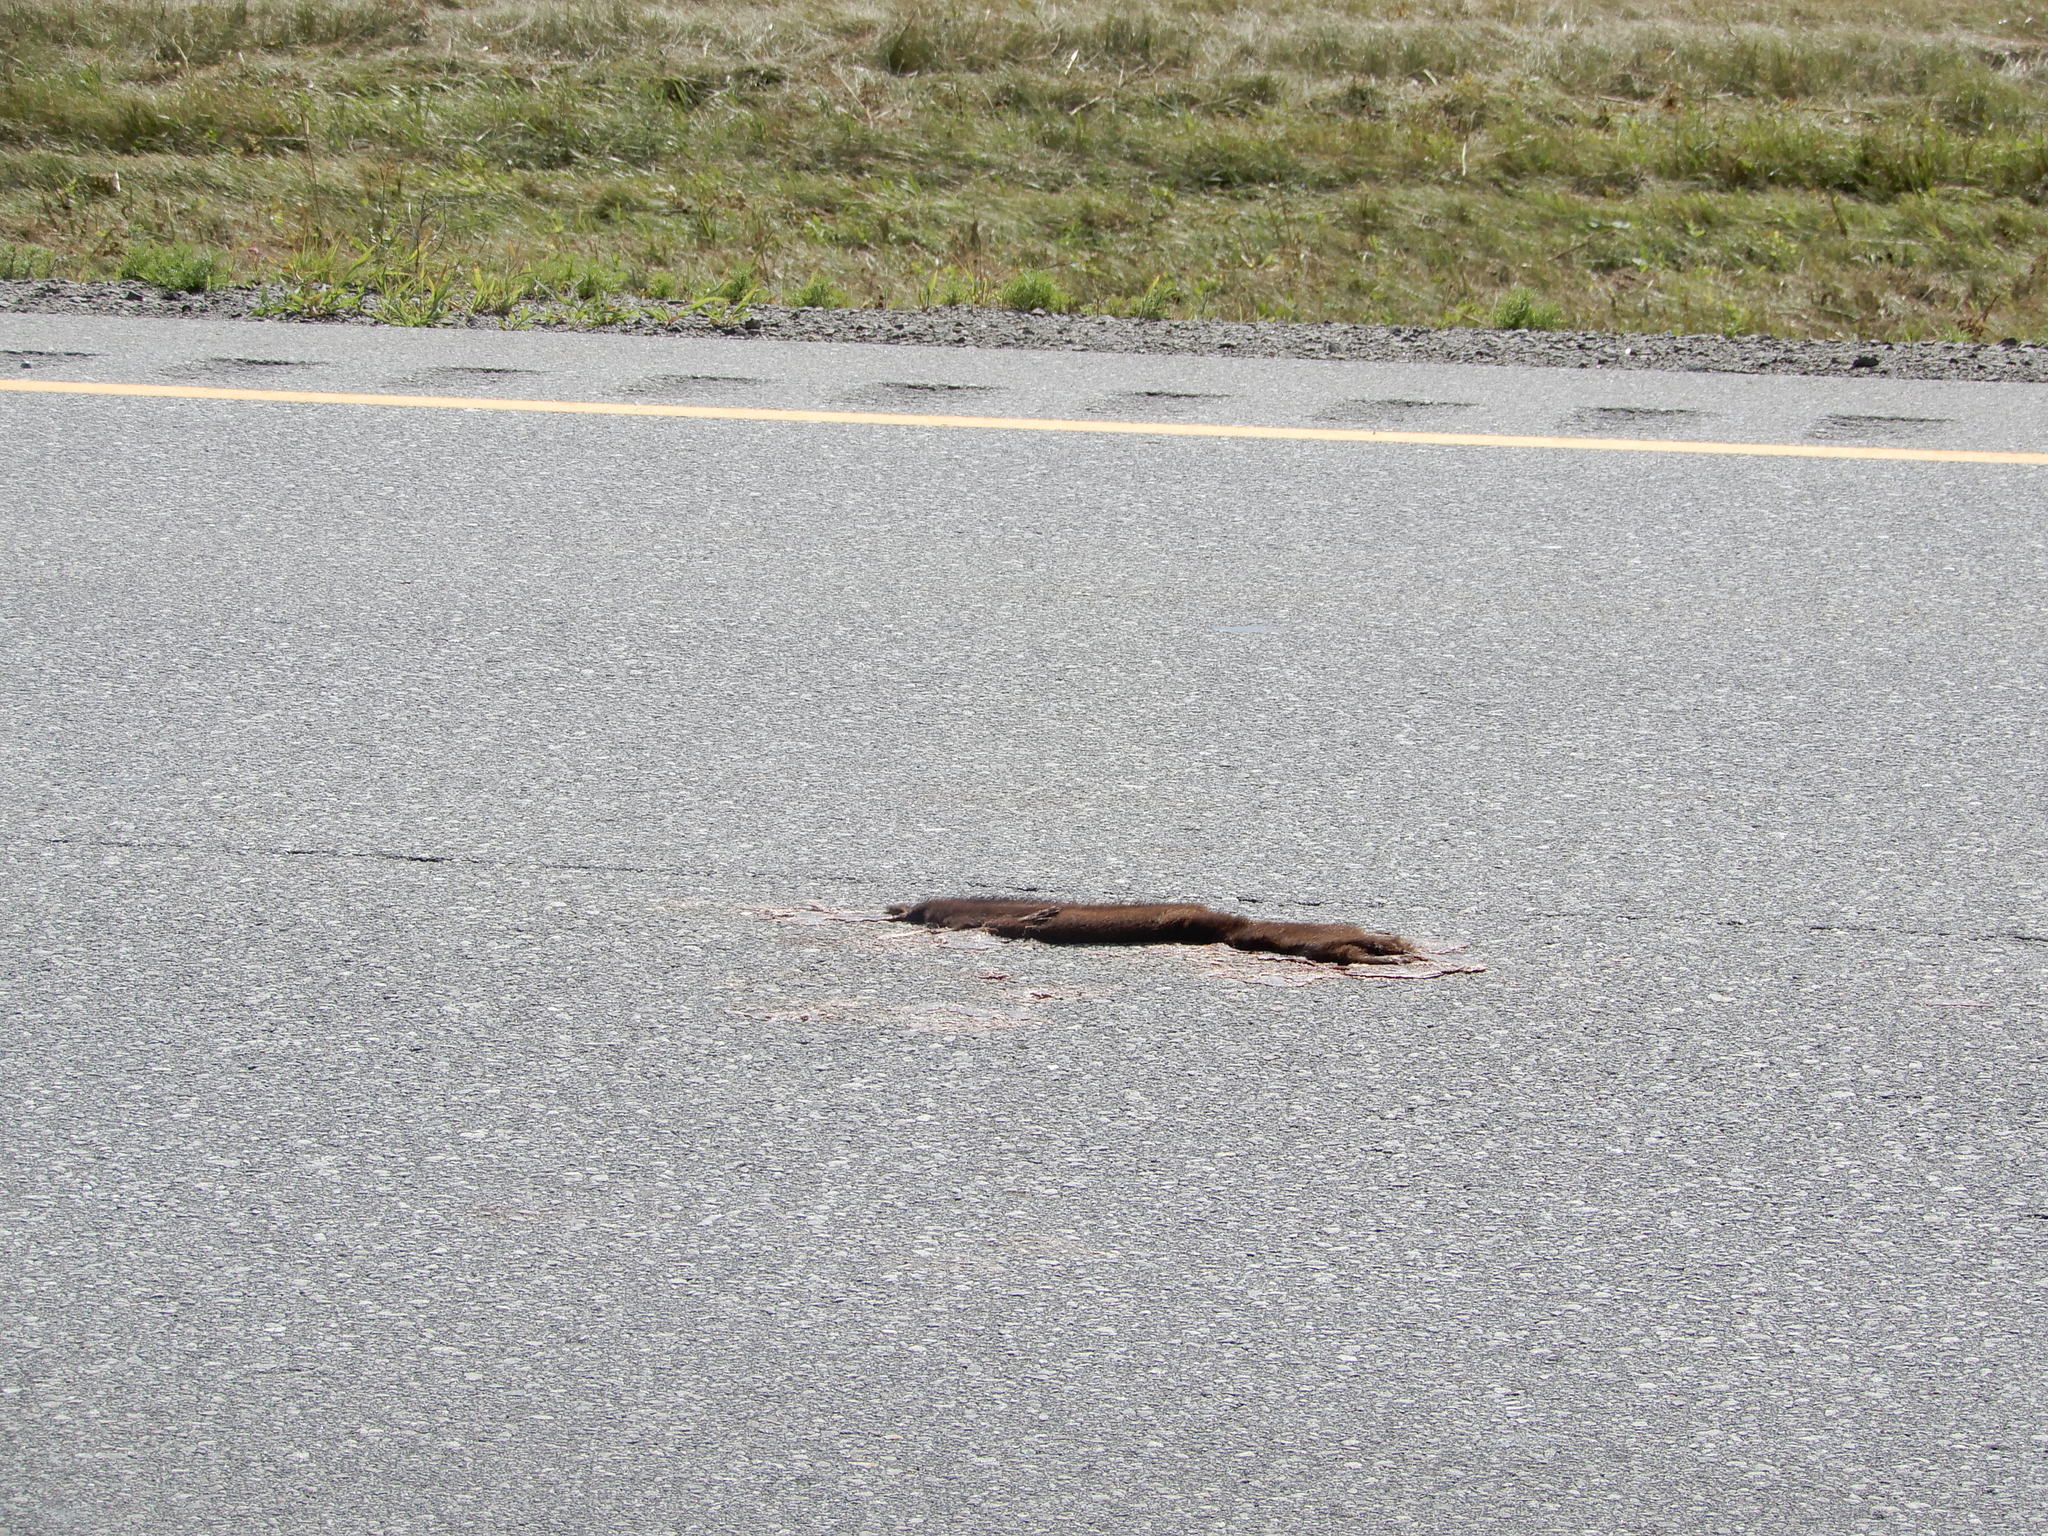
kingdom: Animalia
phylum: Chordata
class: Mammalia
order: Carnivora
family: Mustelidae
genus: Mustela
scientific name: Mustela
